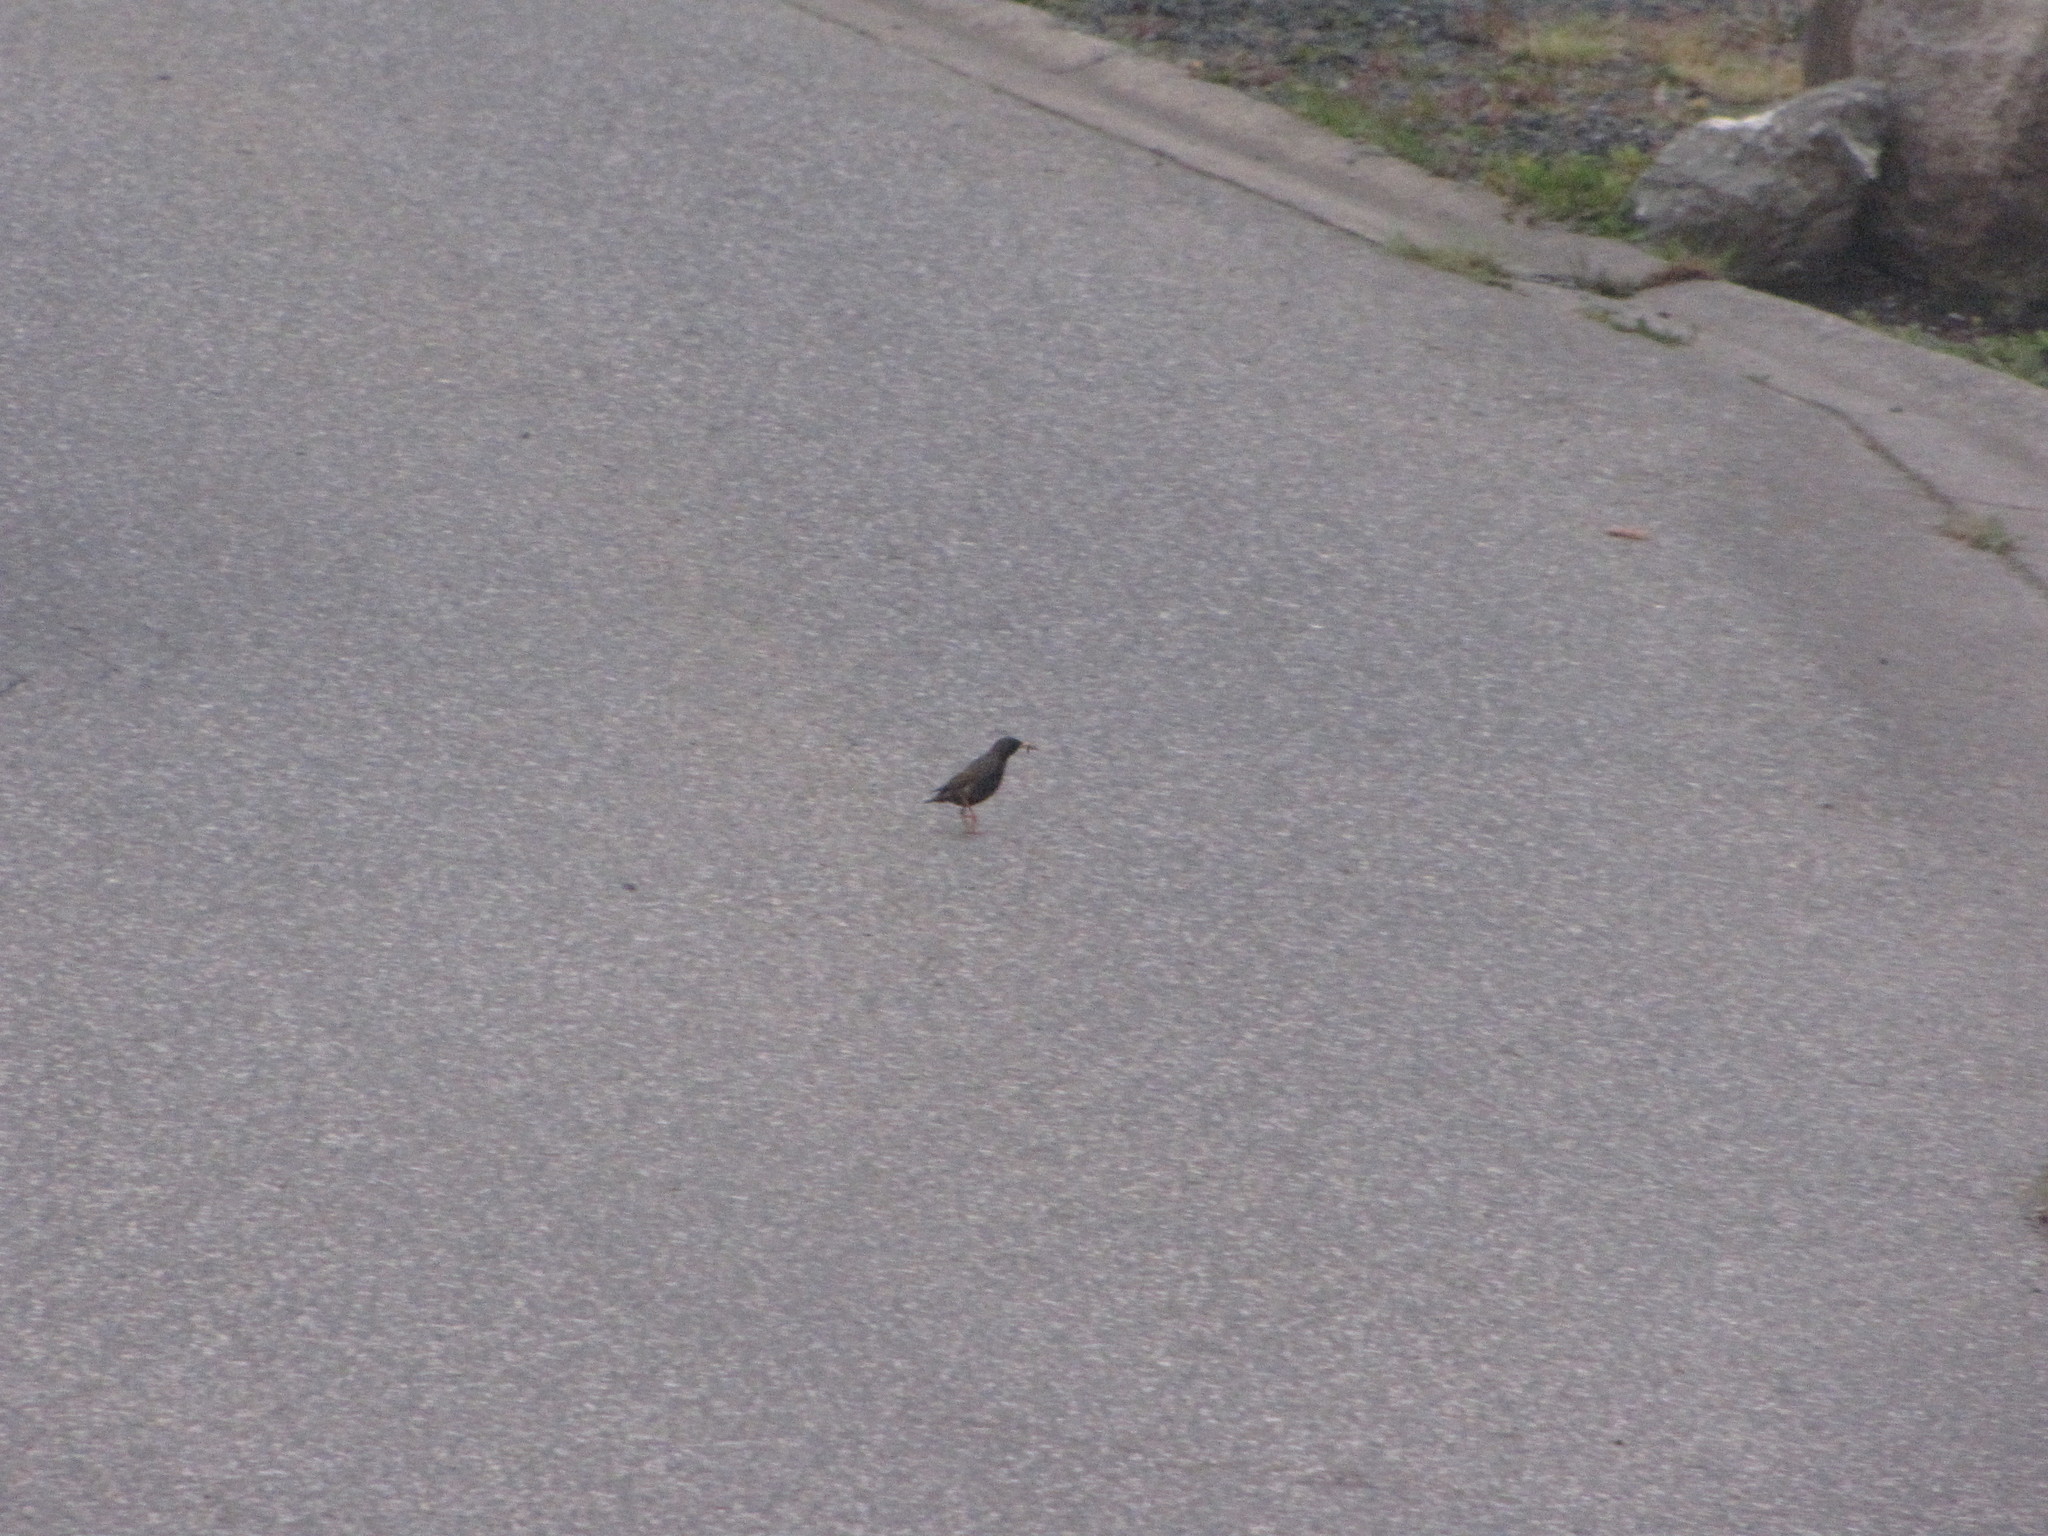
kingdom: Animalia
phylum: Chordata
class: Aves
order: Passeriformes
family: Sturnidae
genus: Sturnus
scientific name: Sturnus vulgaris
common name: Common starling
